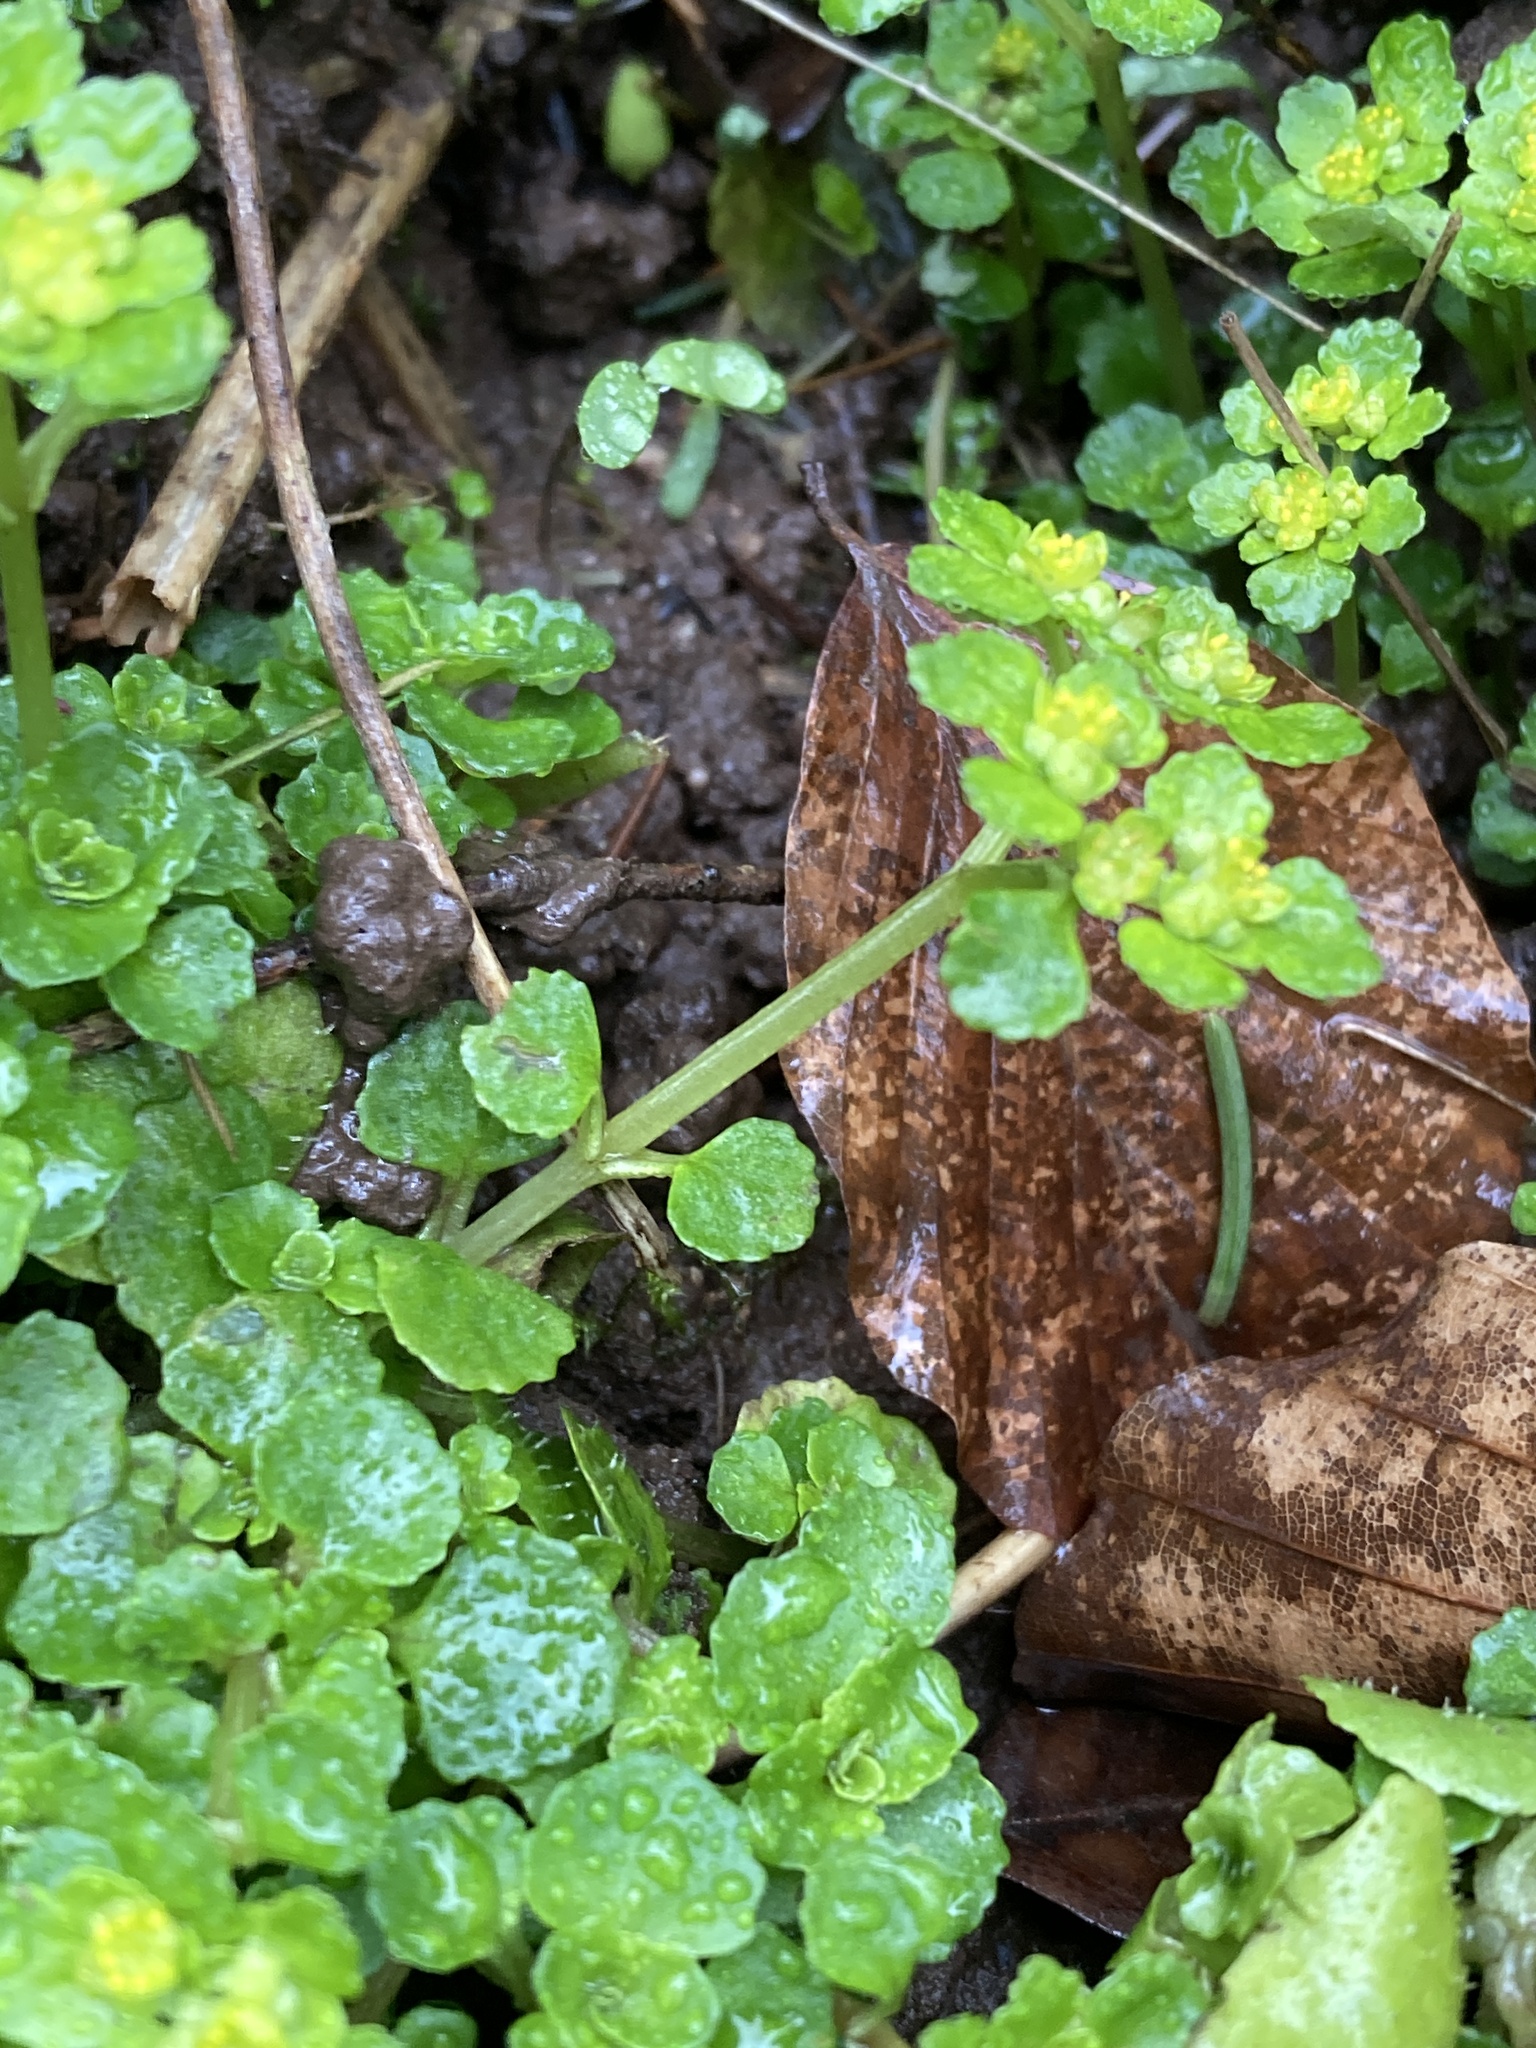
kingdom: Plantae
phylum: Tracheophyta
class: Magnoliopsida
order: Saxifragales
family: Saxifragaceae
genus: Chrysosplenium
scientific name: Chrysosplenium oppositifolium
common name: Opposite-leaved golden-saxifrage
